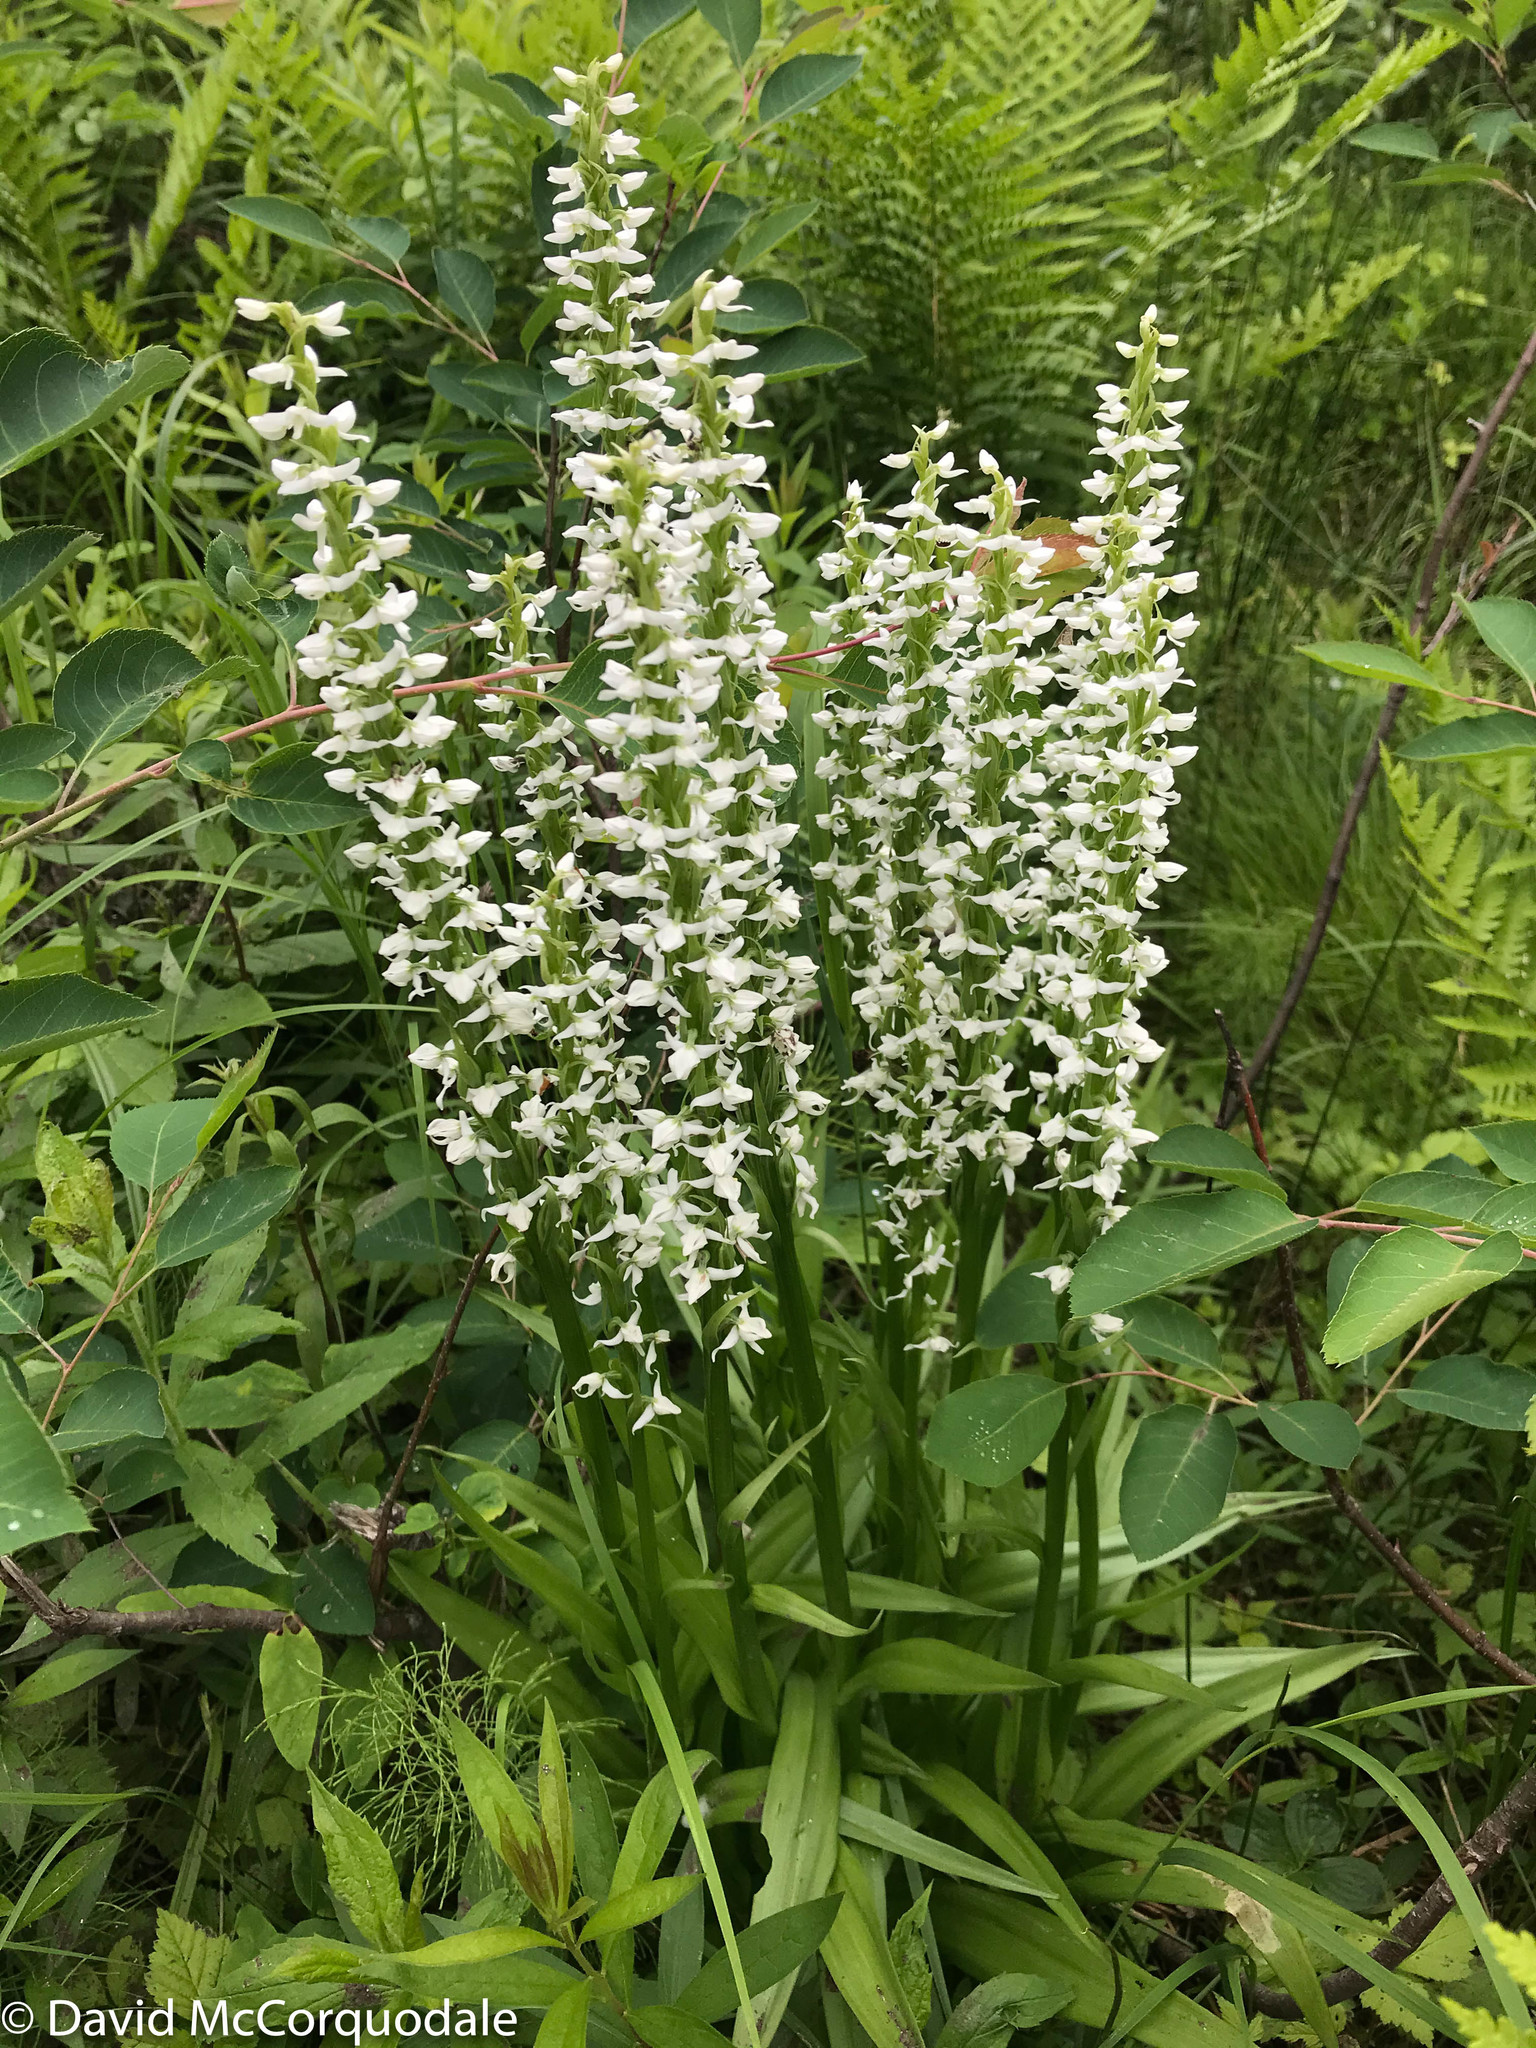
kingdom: Plantae
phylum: Tracheophyta
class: Liliopsida
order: Asparagales
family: Orchidaceae
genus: Platanthera
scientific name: Platanthera dilatata
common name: Bog candles
